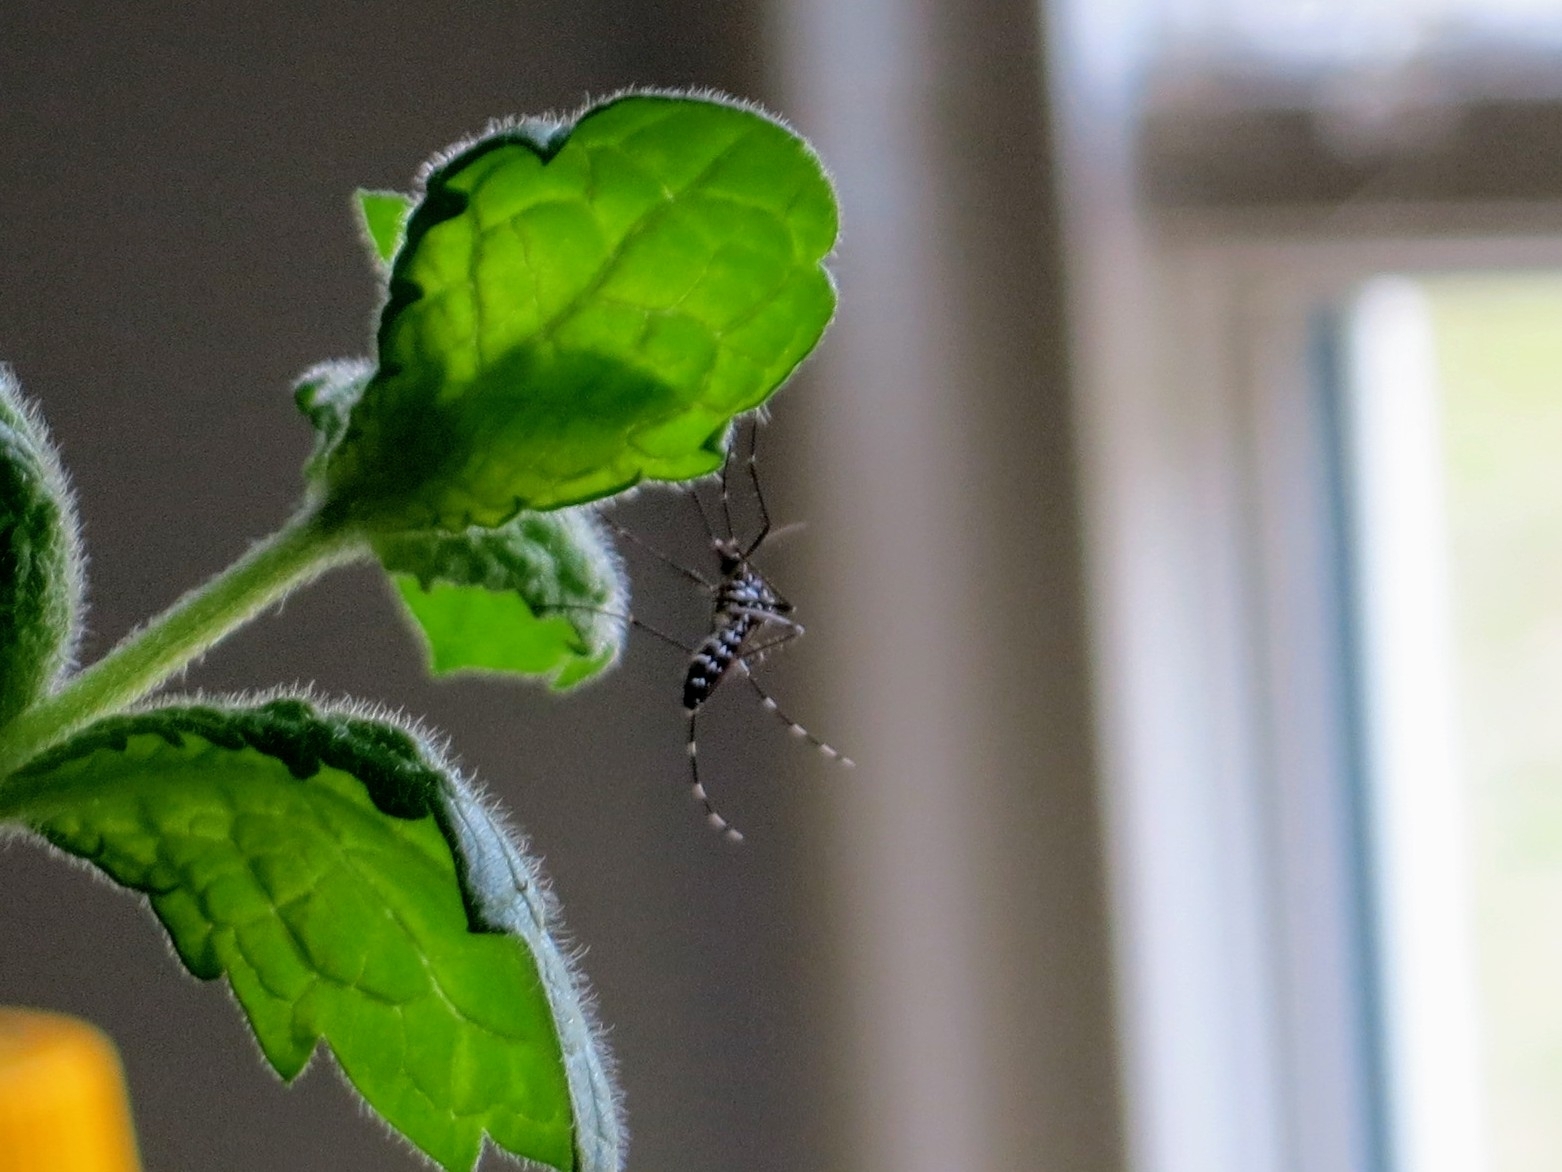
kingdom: Animalia
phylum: Arthropoda
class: Insecta
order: Diptera
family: Culicidae
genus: Aedes
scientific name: Aedes albopictus
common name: Tiger mosquito
